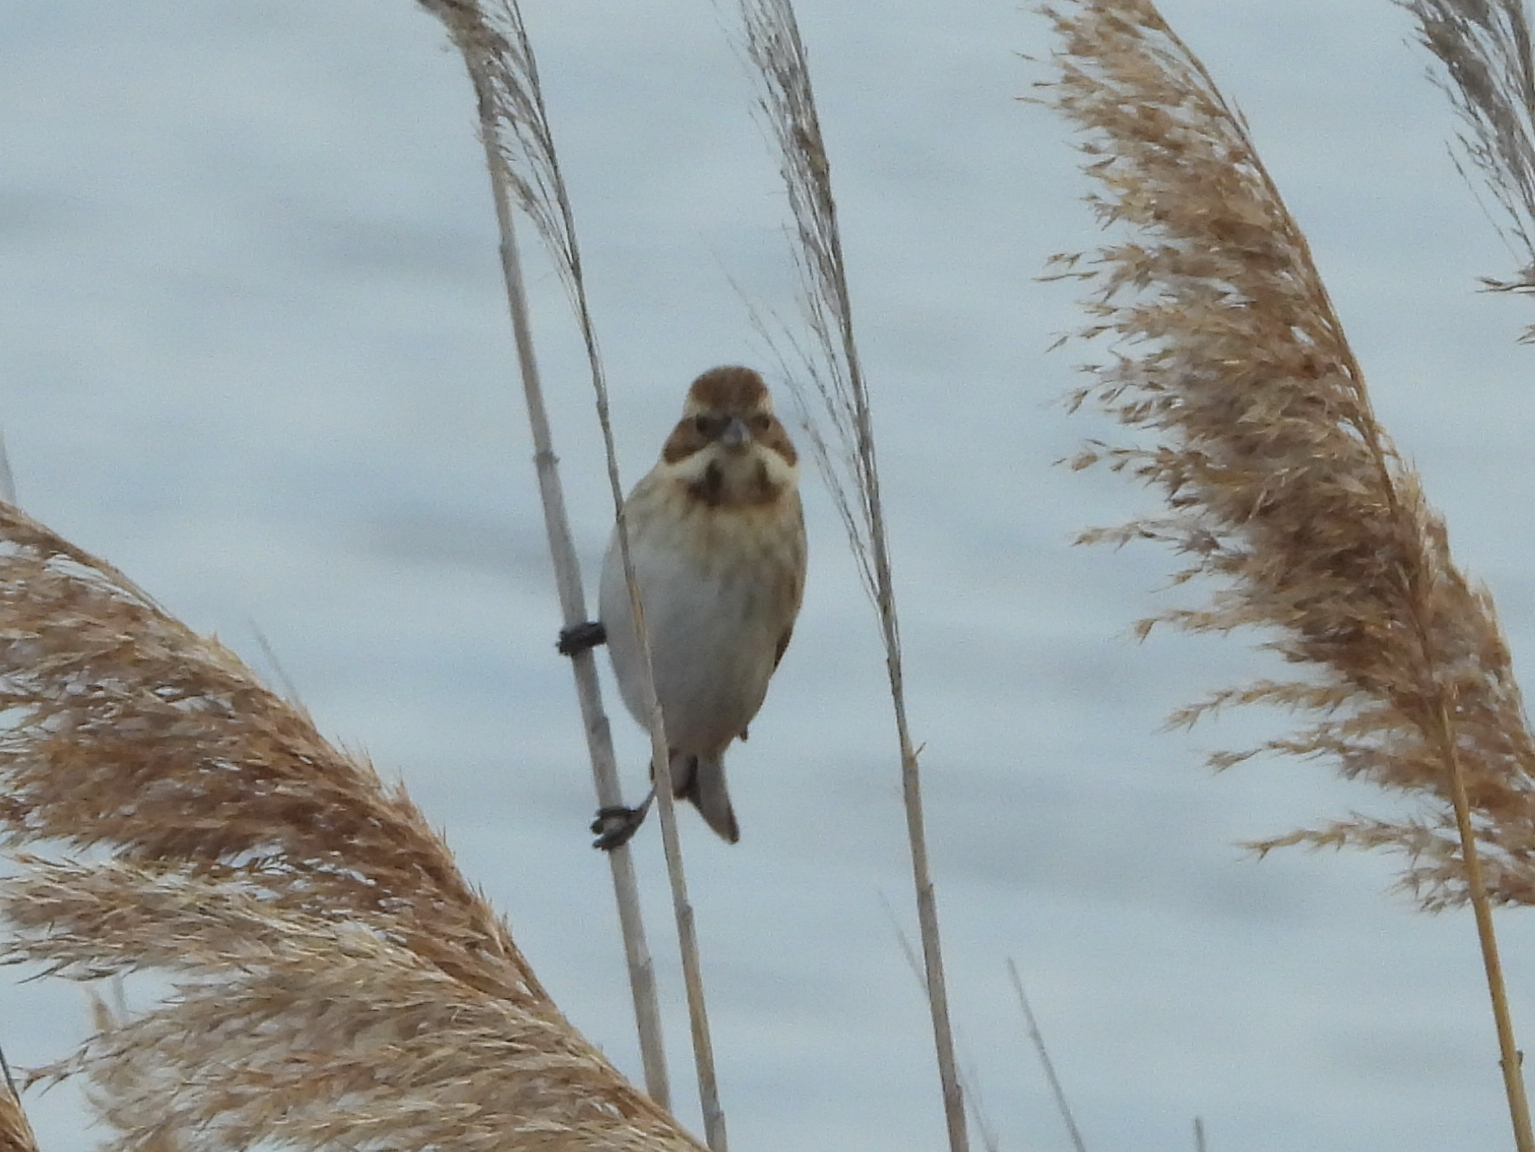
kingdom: Animalia
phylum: Chordata
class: Aves
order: Passeriformes
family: Emberizidae
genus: Emberiza
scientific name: Emberiza schoeniclus
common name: Reed bunting
